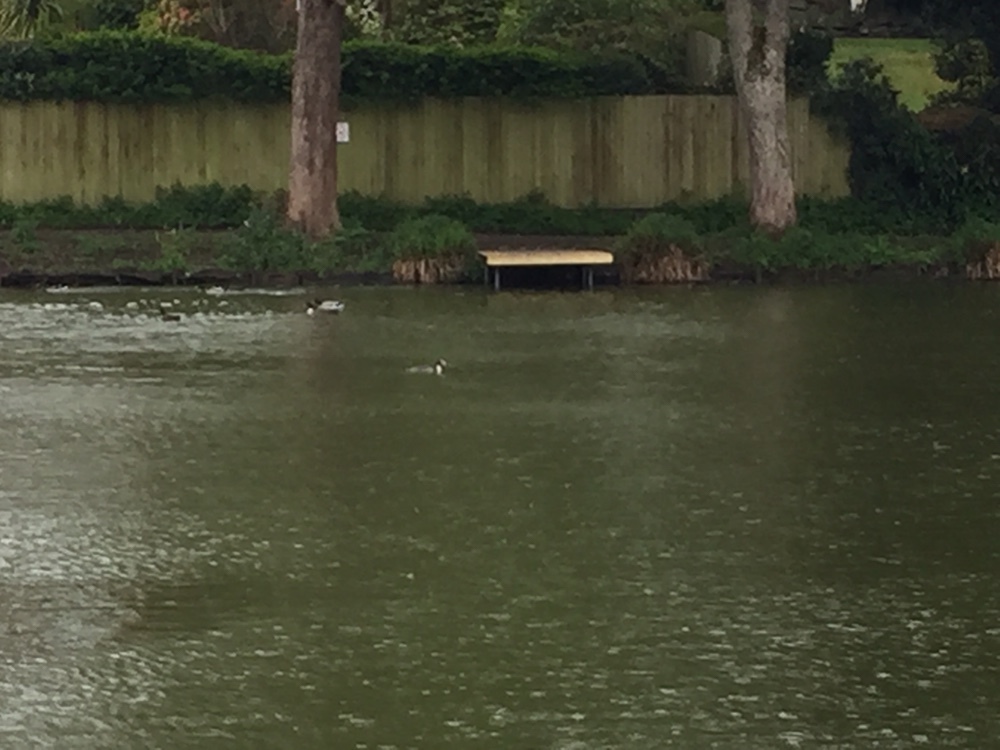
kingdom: Animalia
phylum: Chordata
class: Aves
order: Podicipediformes
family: Podicipedidae
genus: Podiceps
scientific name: Podiceps cristatus
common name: Great crested grebe
